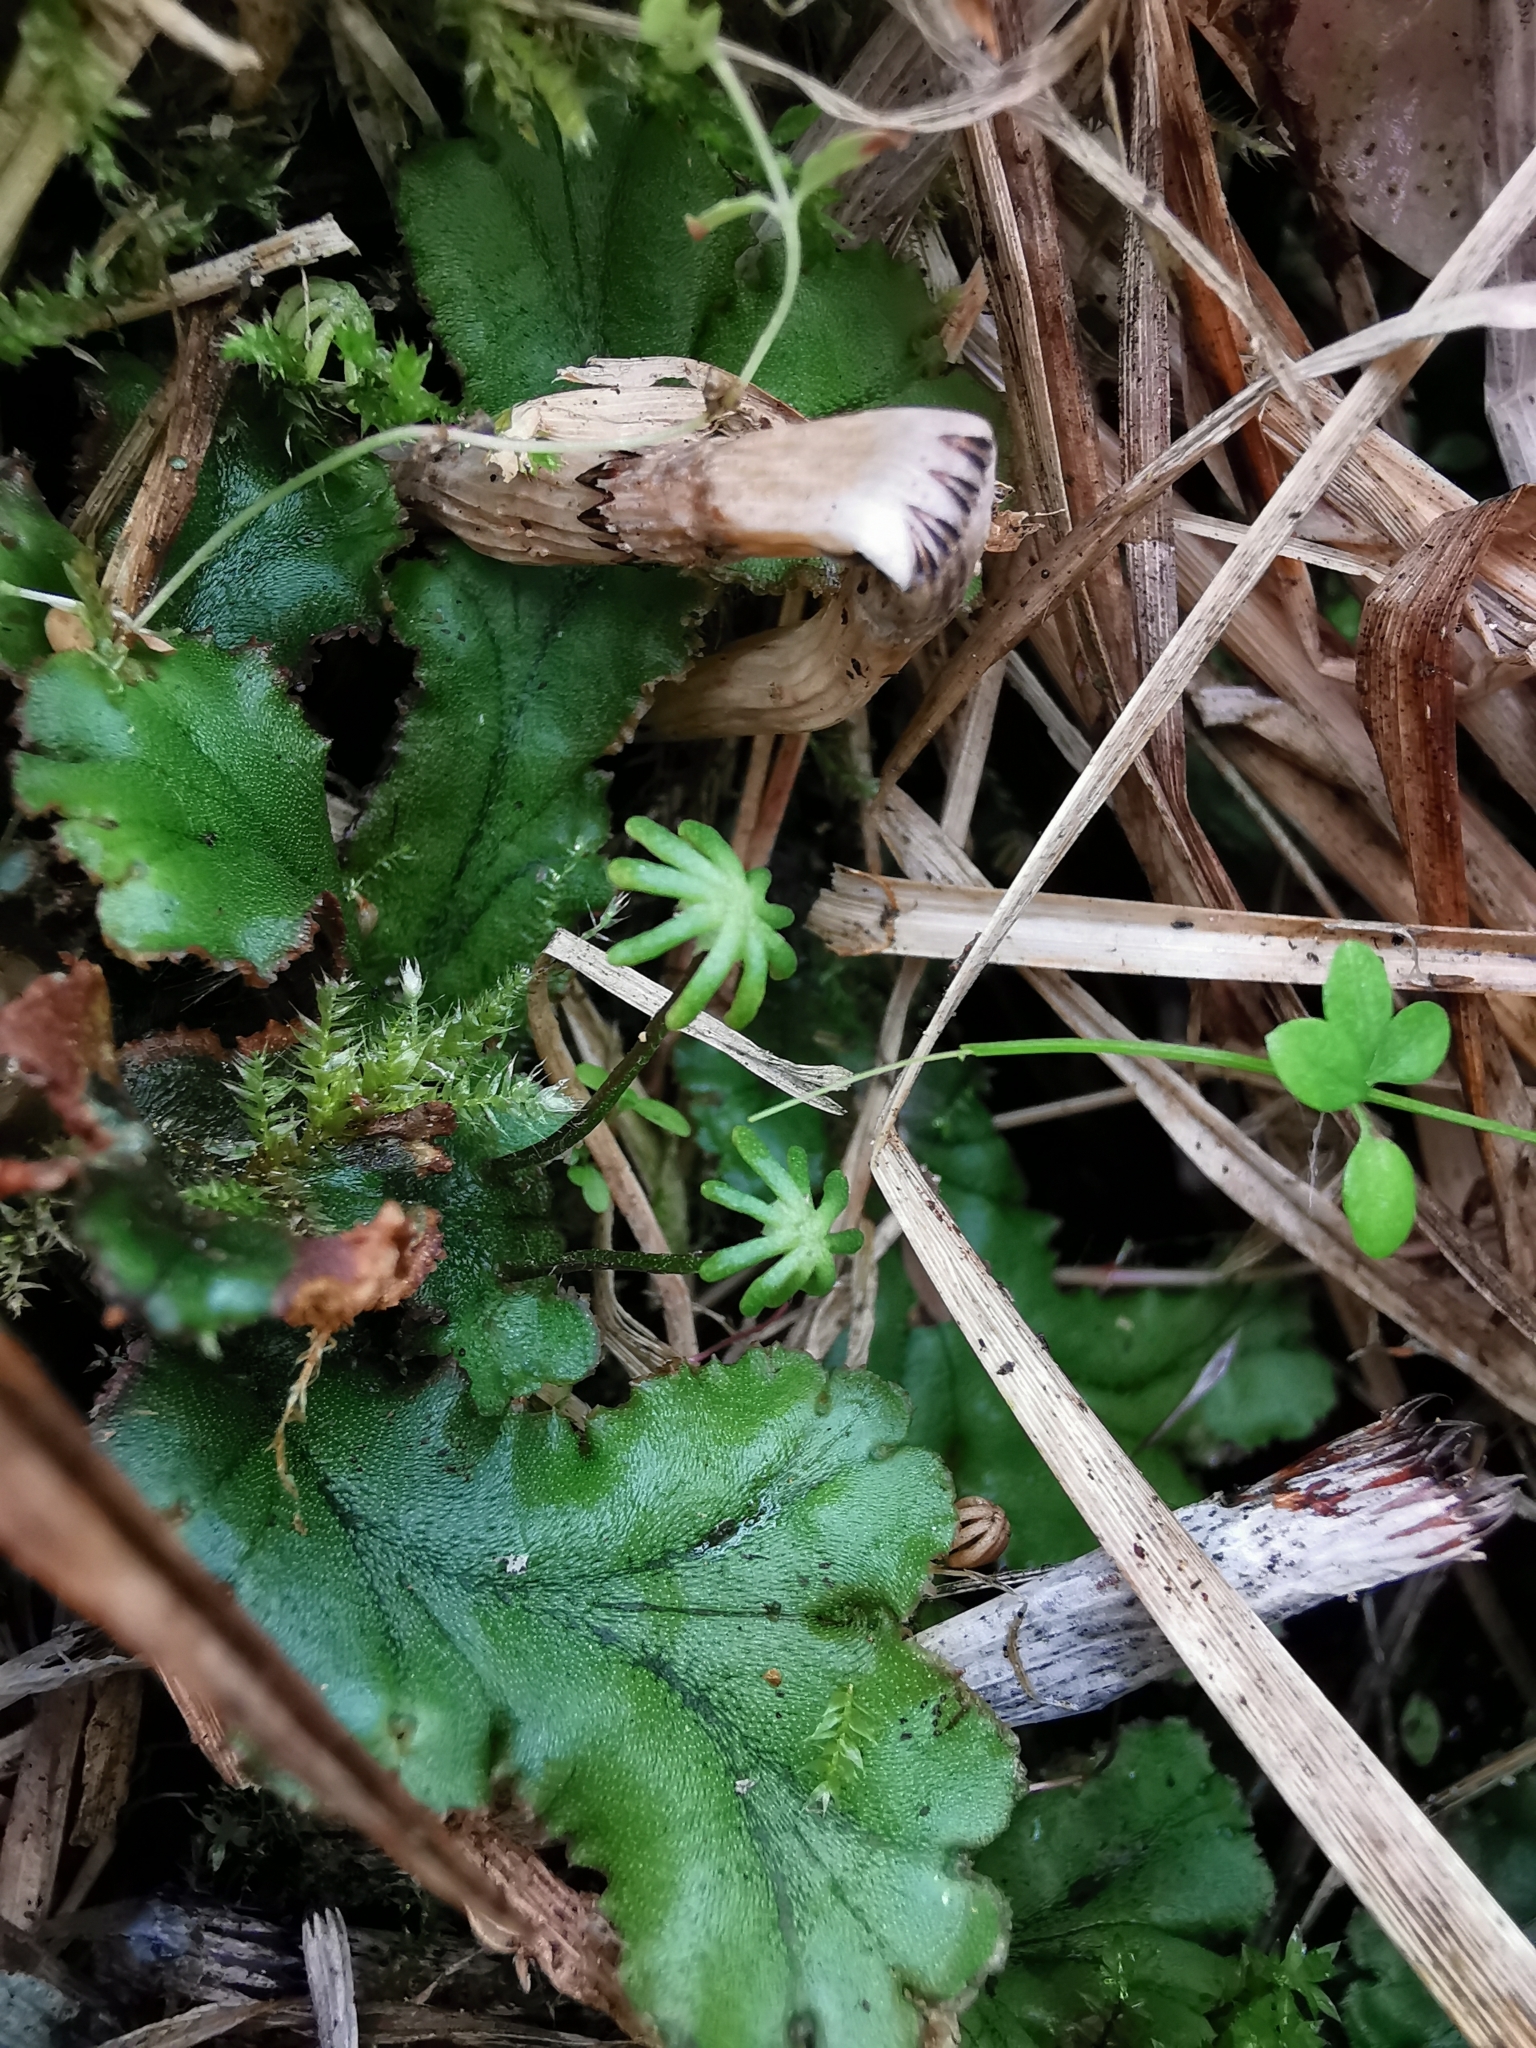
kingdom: Plantae
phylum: Marchantiophyta
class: Marchantiopsida
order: Marchantiales
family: Marchantiaceae
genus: Marchantia
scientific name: Marchantia polymorpha
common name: Common liverwort
